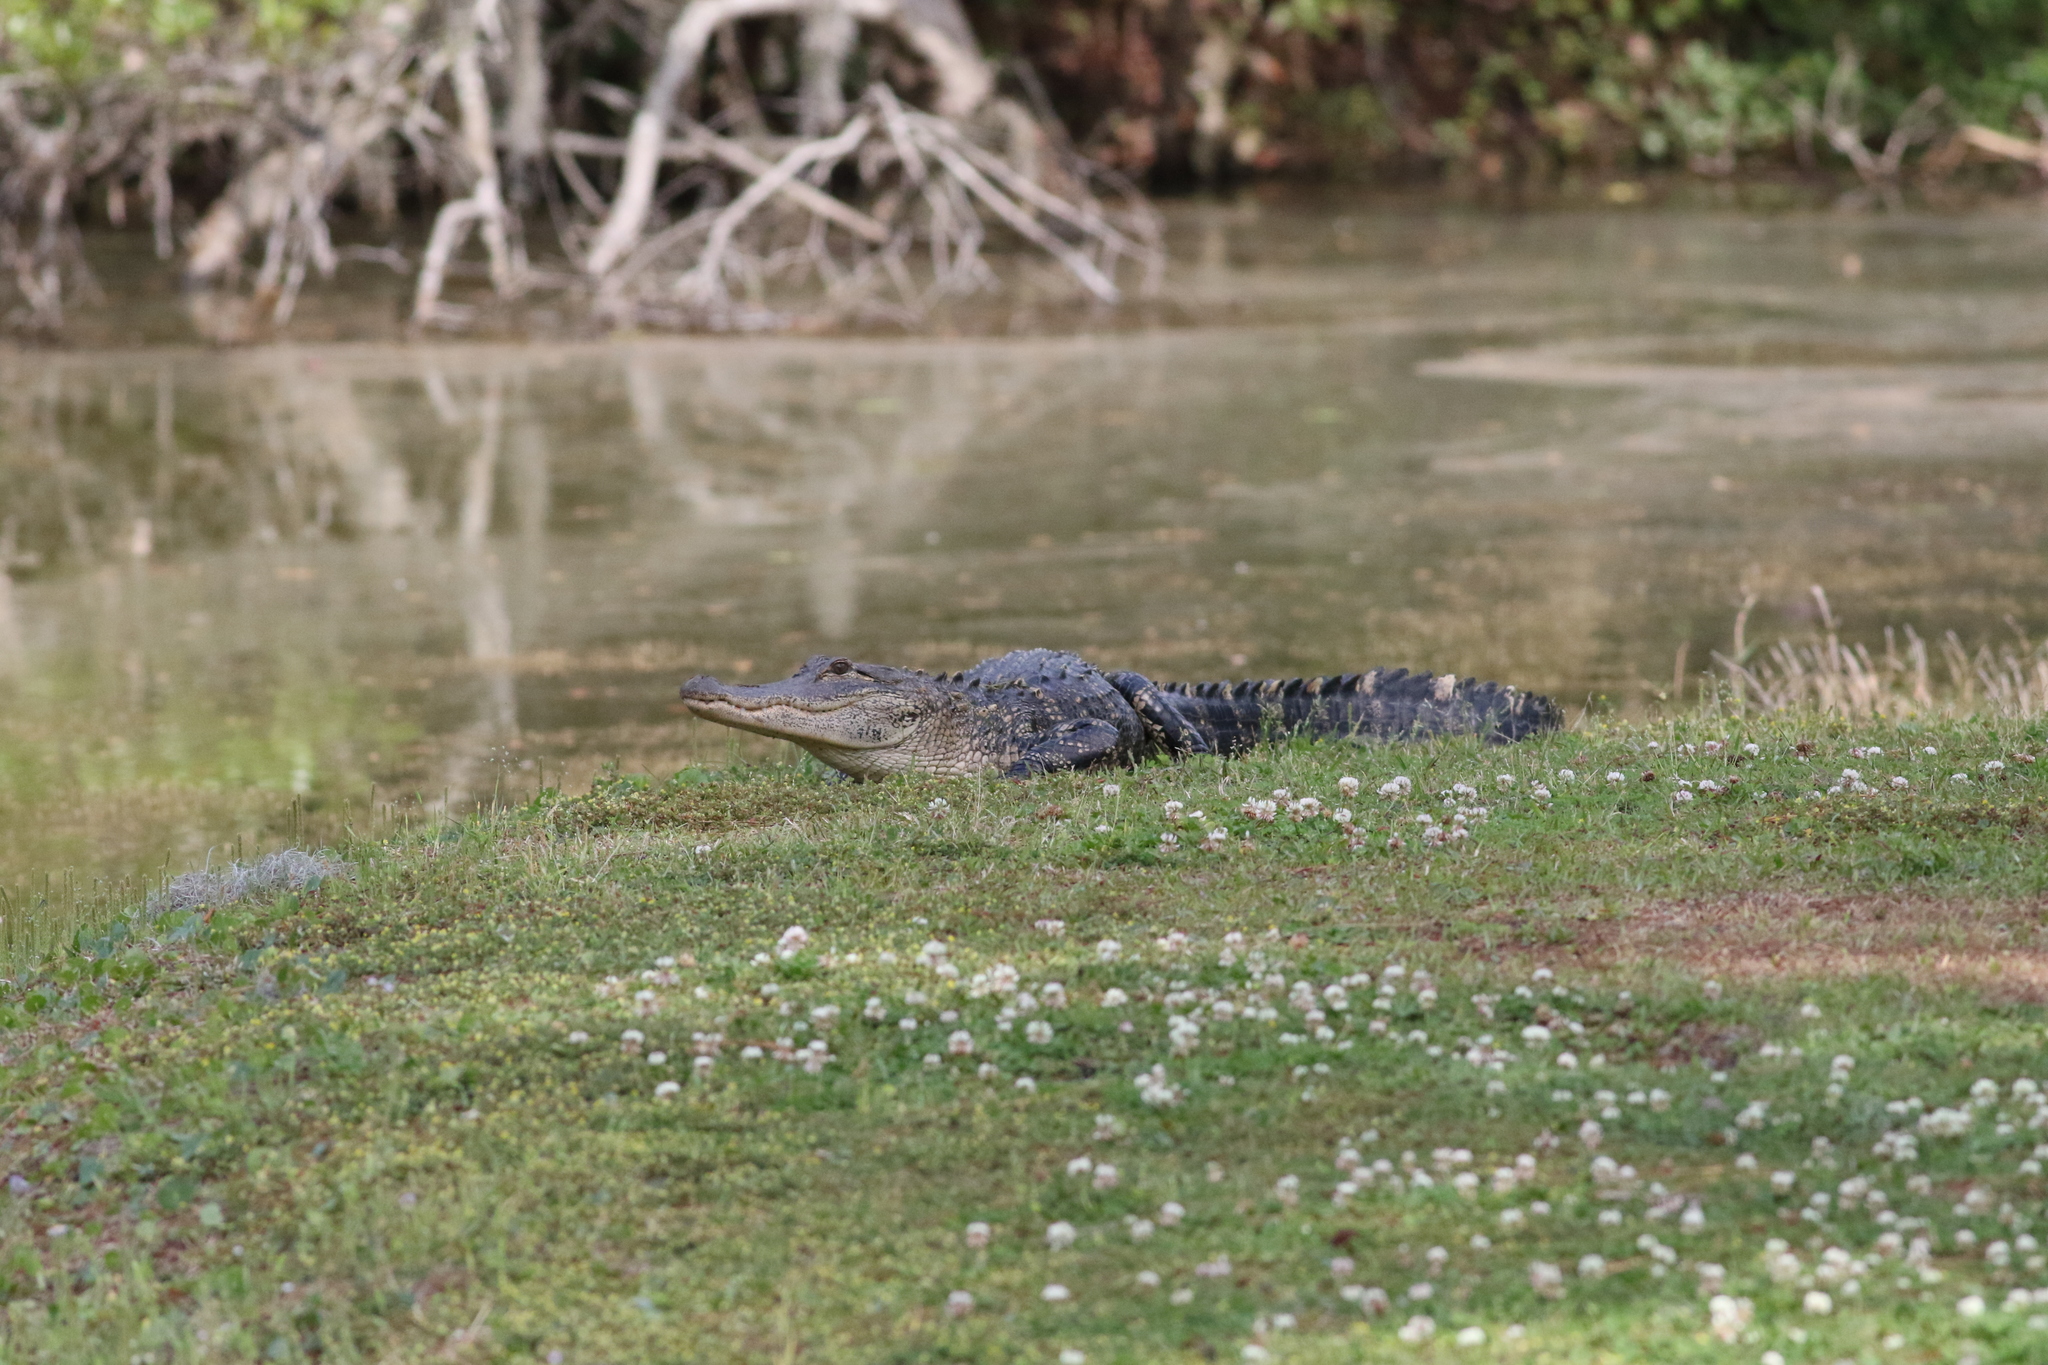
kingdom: Animalia
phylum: Chordata
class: Crocodylia
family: Alligatoridae
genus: Alligator
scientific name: Alligator mississippiensis
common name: American alligator
